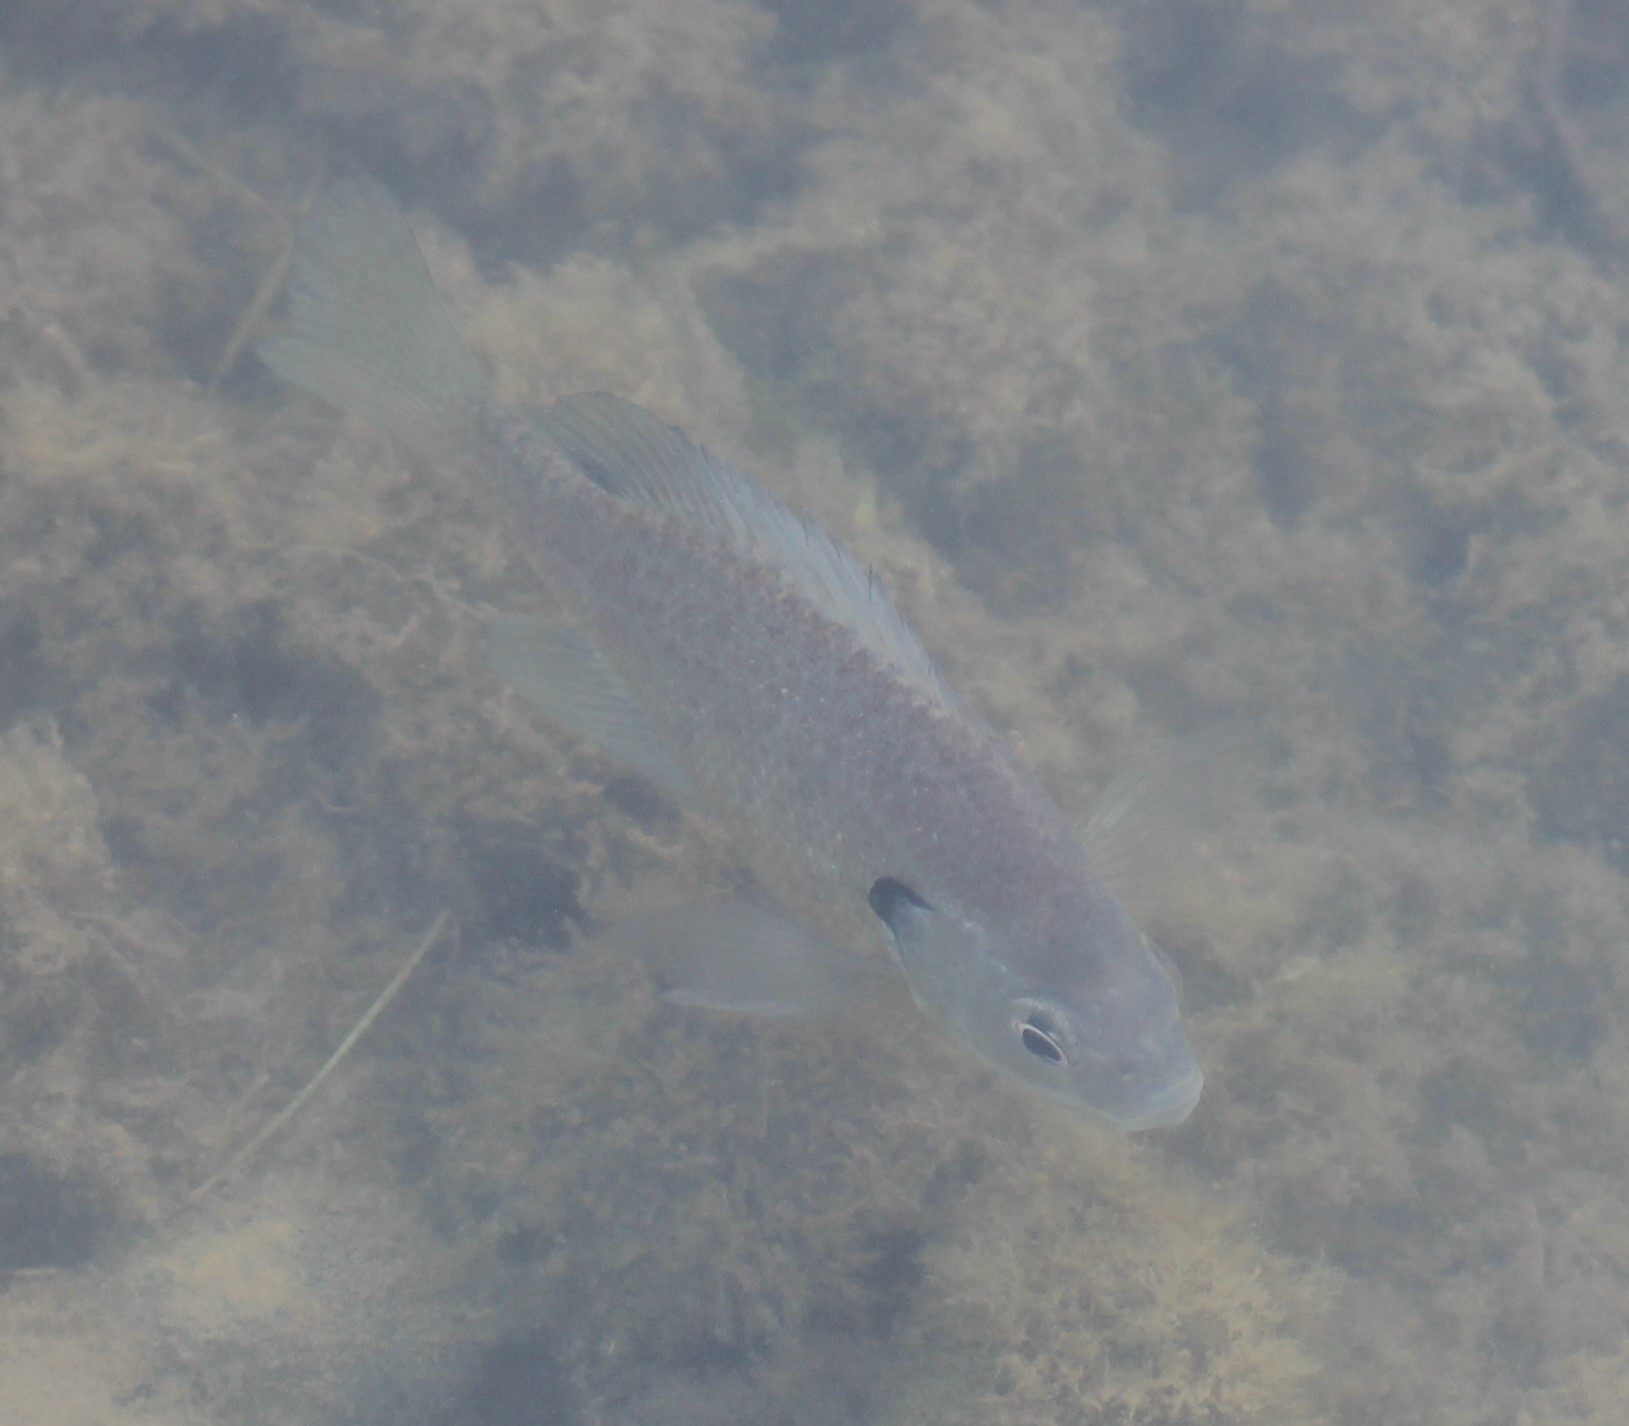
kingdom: Animalia
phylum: Chordata
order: Perciformes
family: Centrarchidae
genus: Lepomis
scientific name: Lepomis macrochirus
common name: Bluegill
